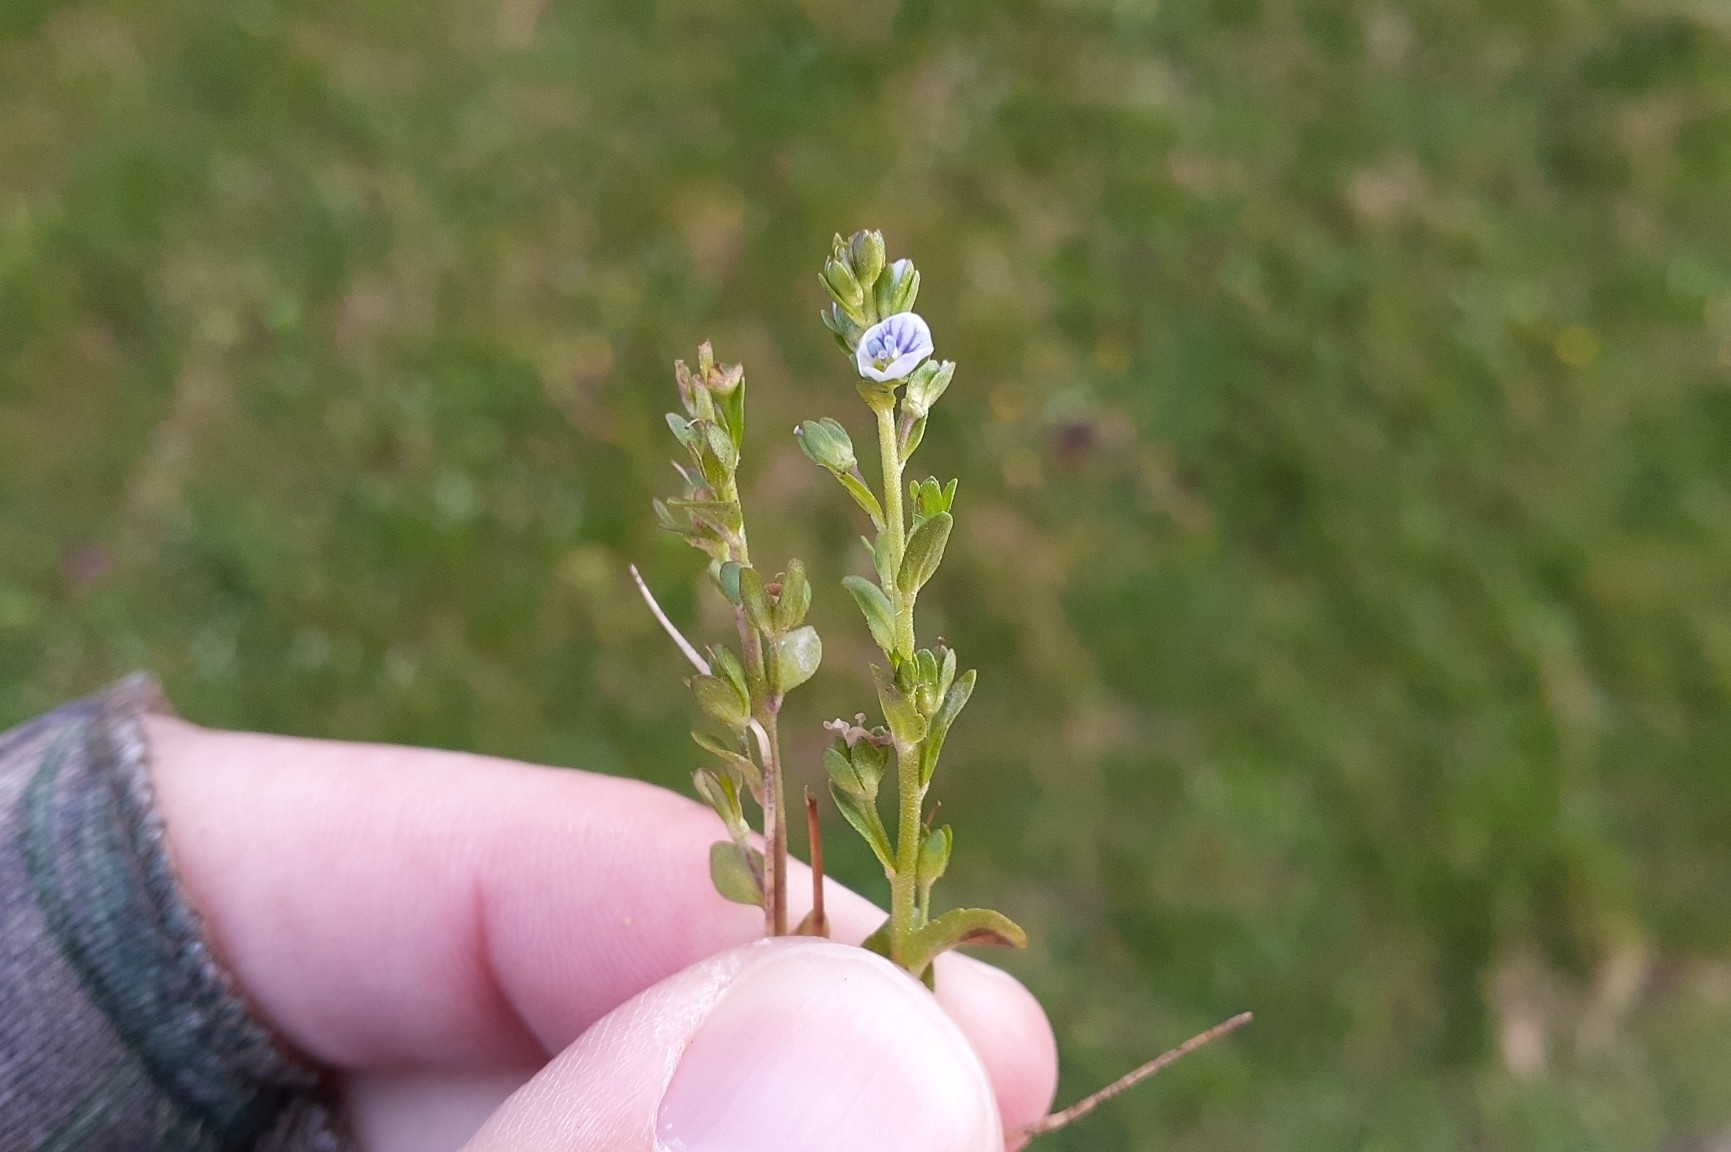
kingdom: Plantae
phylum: Tracheophyta
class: Magnoliopsida
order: Lamiales
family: Plantaginaceae
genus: Veronica
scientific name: Veronica serpyllifolia
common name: Thyme-leaved speedwell
